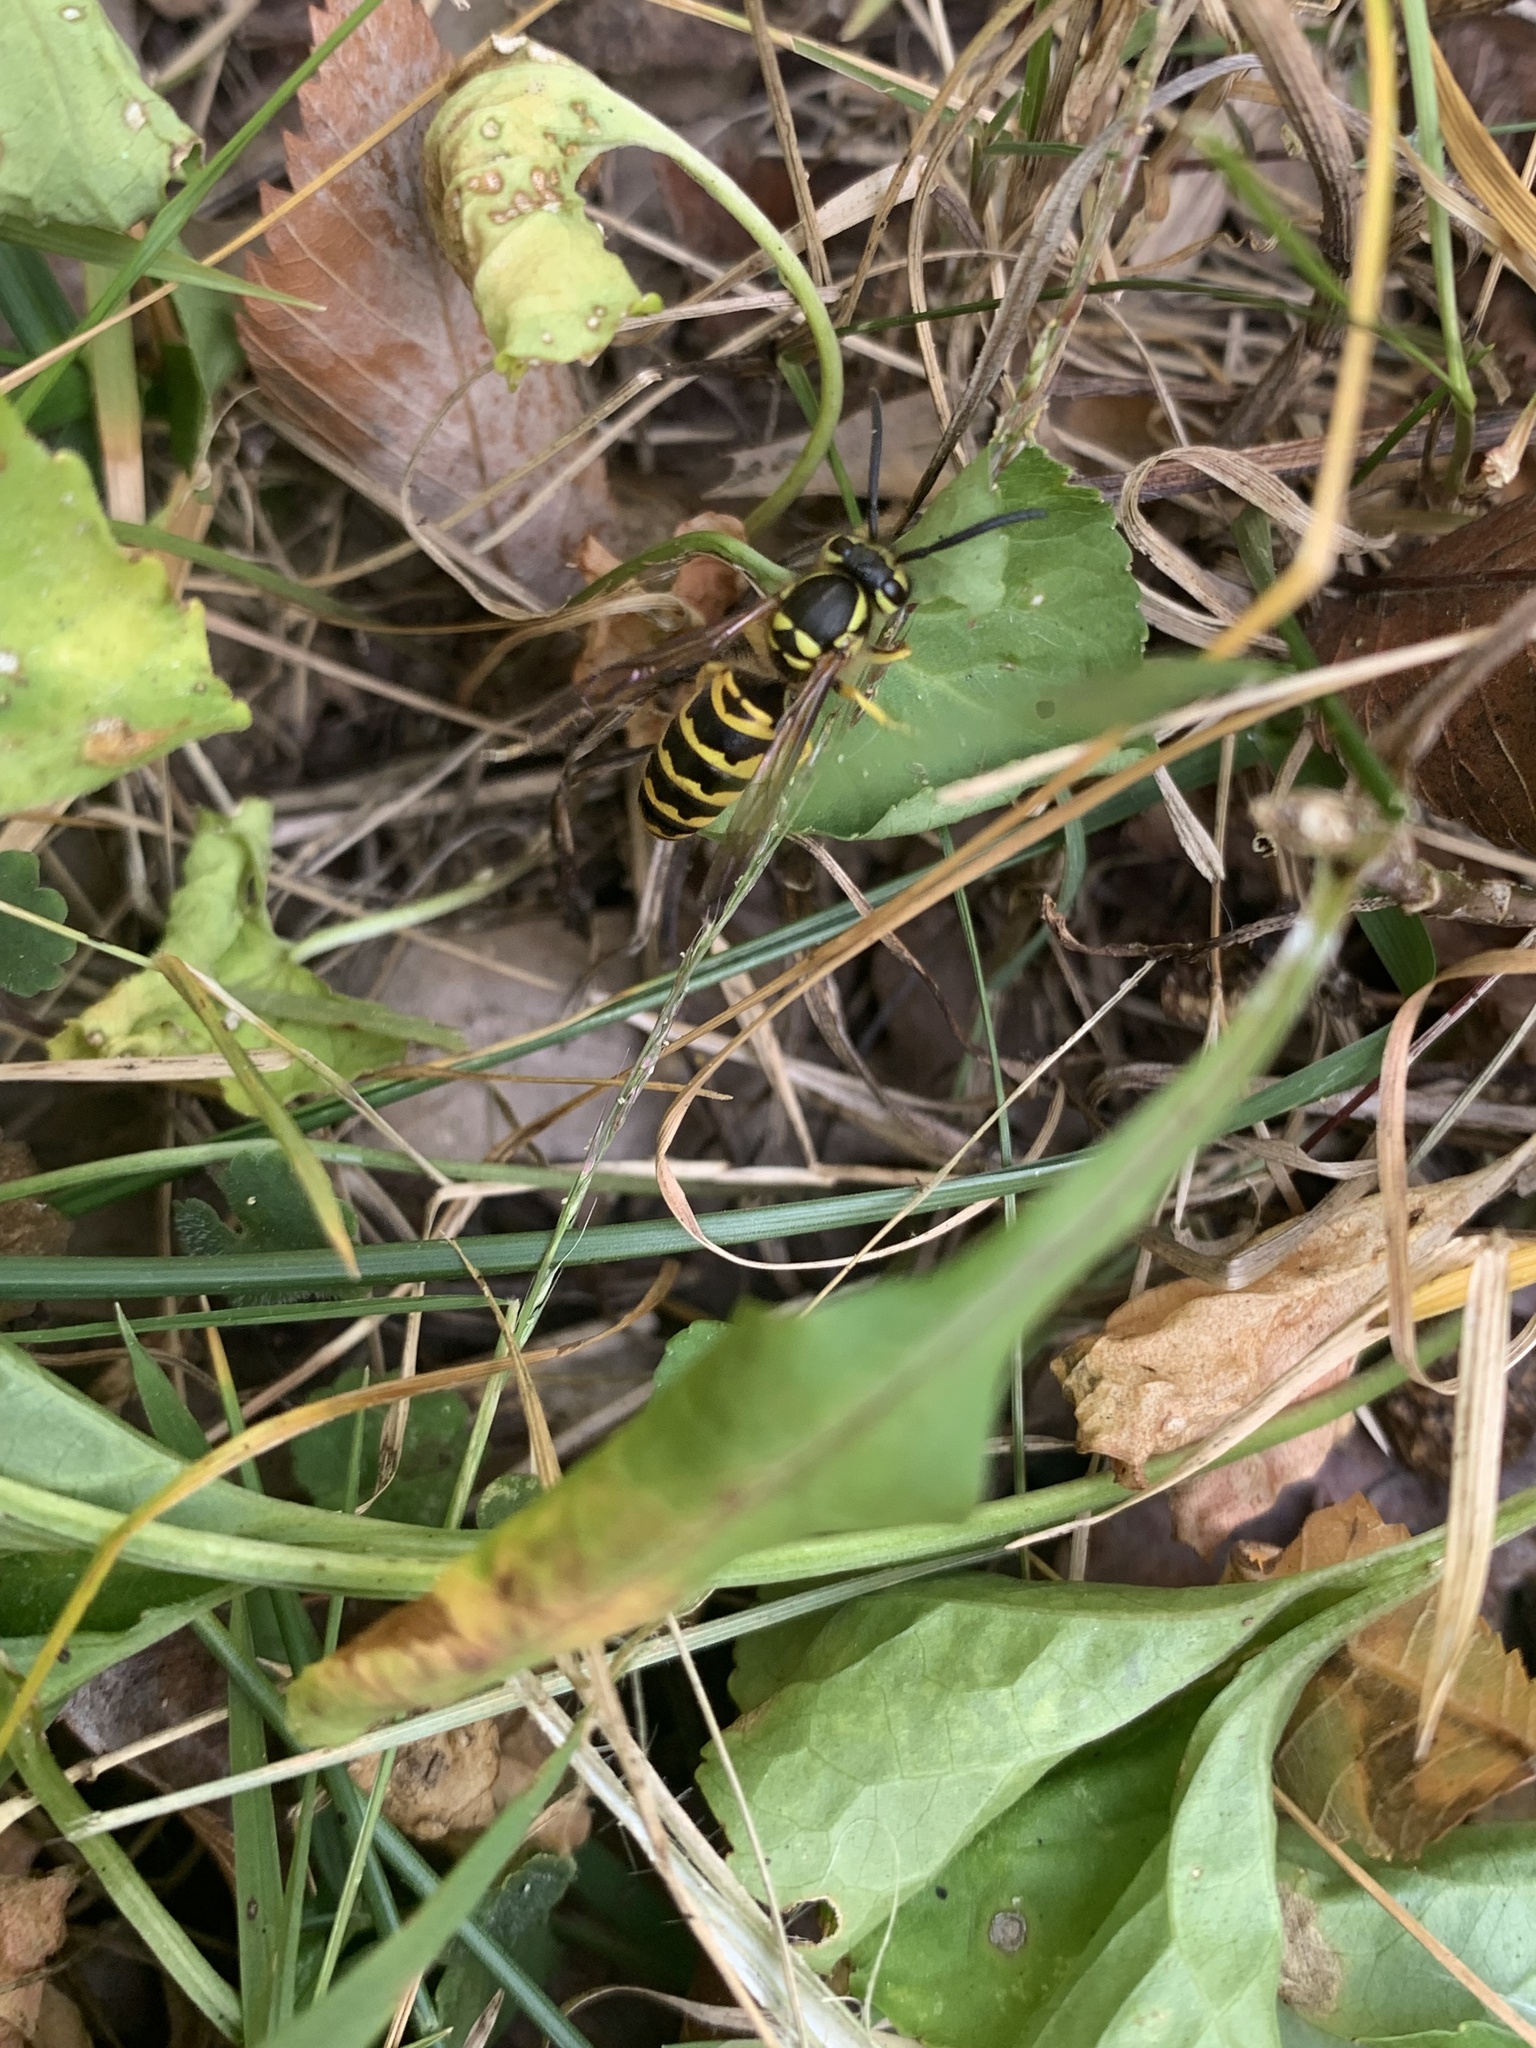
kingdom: Animalia
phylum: Arthropoda
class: Insecta
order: Hymenoptera
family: Vespidae
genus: Vespula
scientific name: Vespula maculifrons
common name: Eastern yellowjacket
